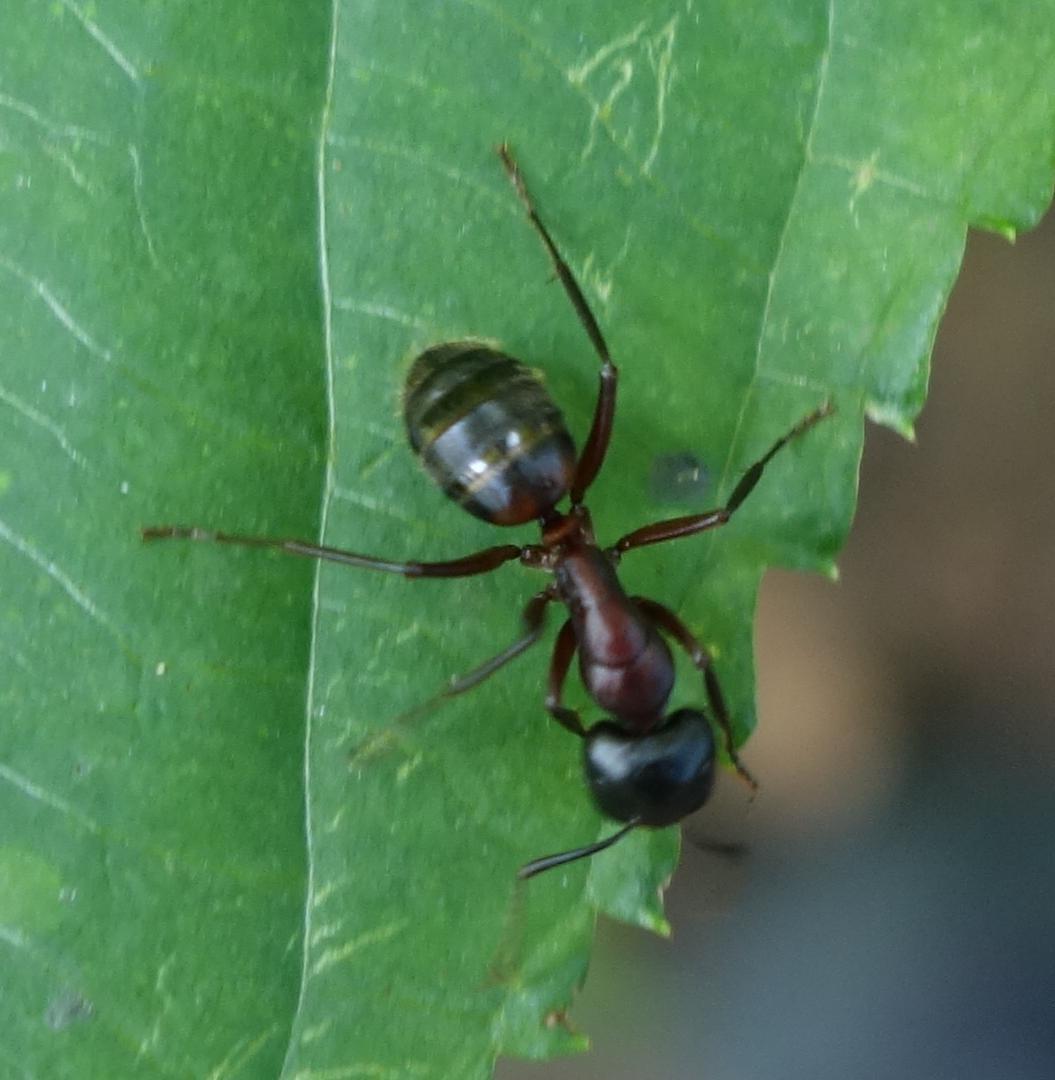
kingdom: Animalia
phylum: Arthropoda
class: Insecta
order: Hymenoptera
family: Formicidae
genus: Camponotus
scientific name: Camponotus ligniperdus
